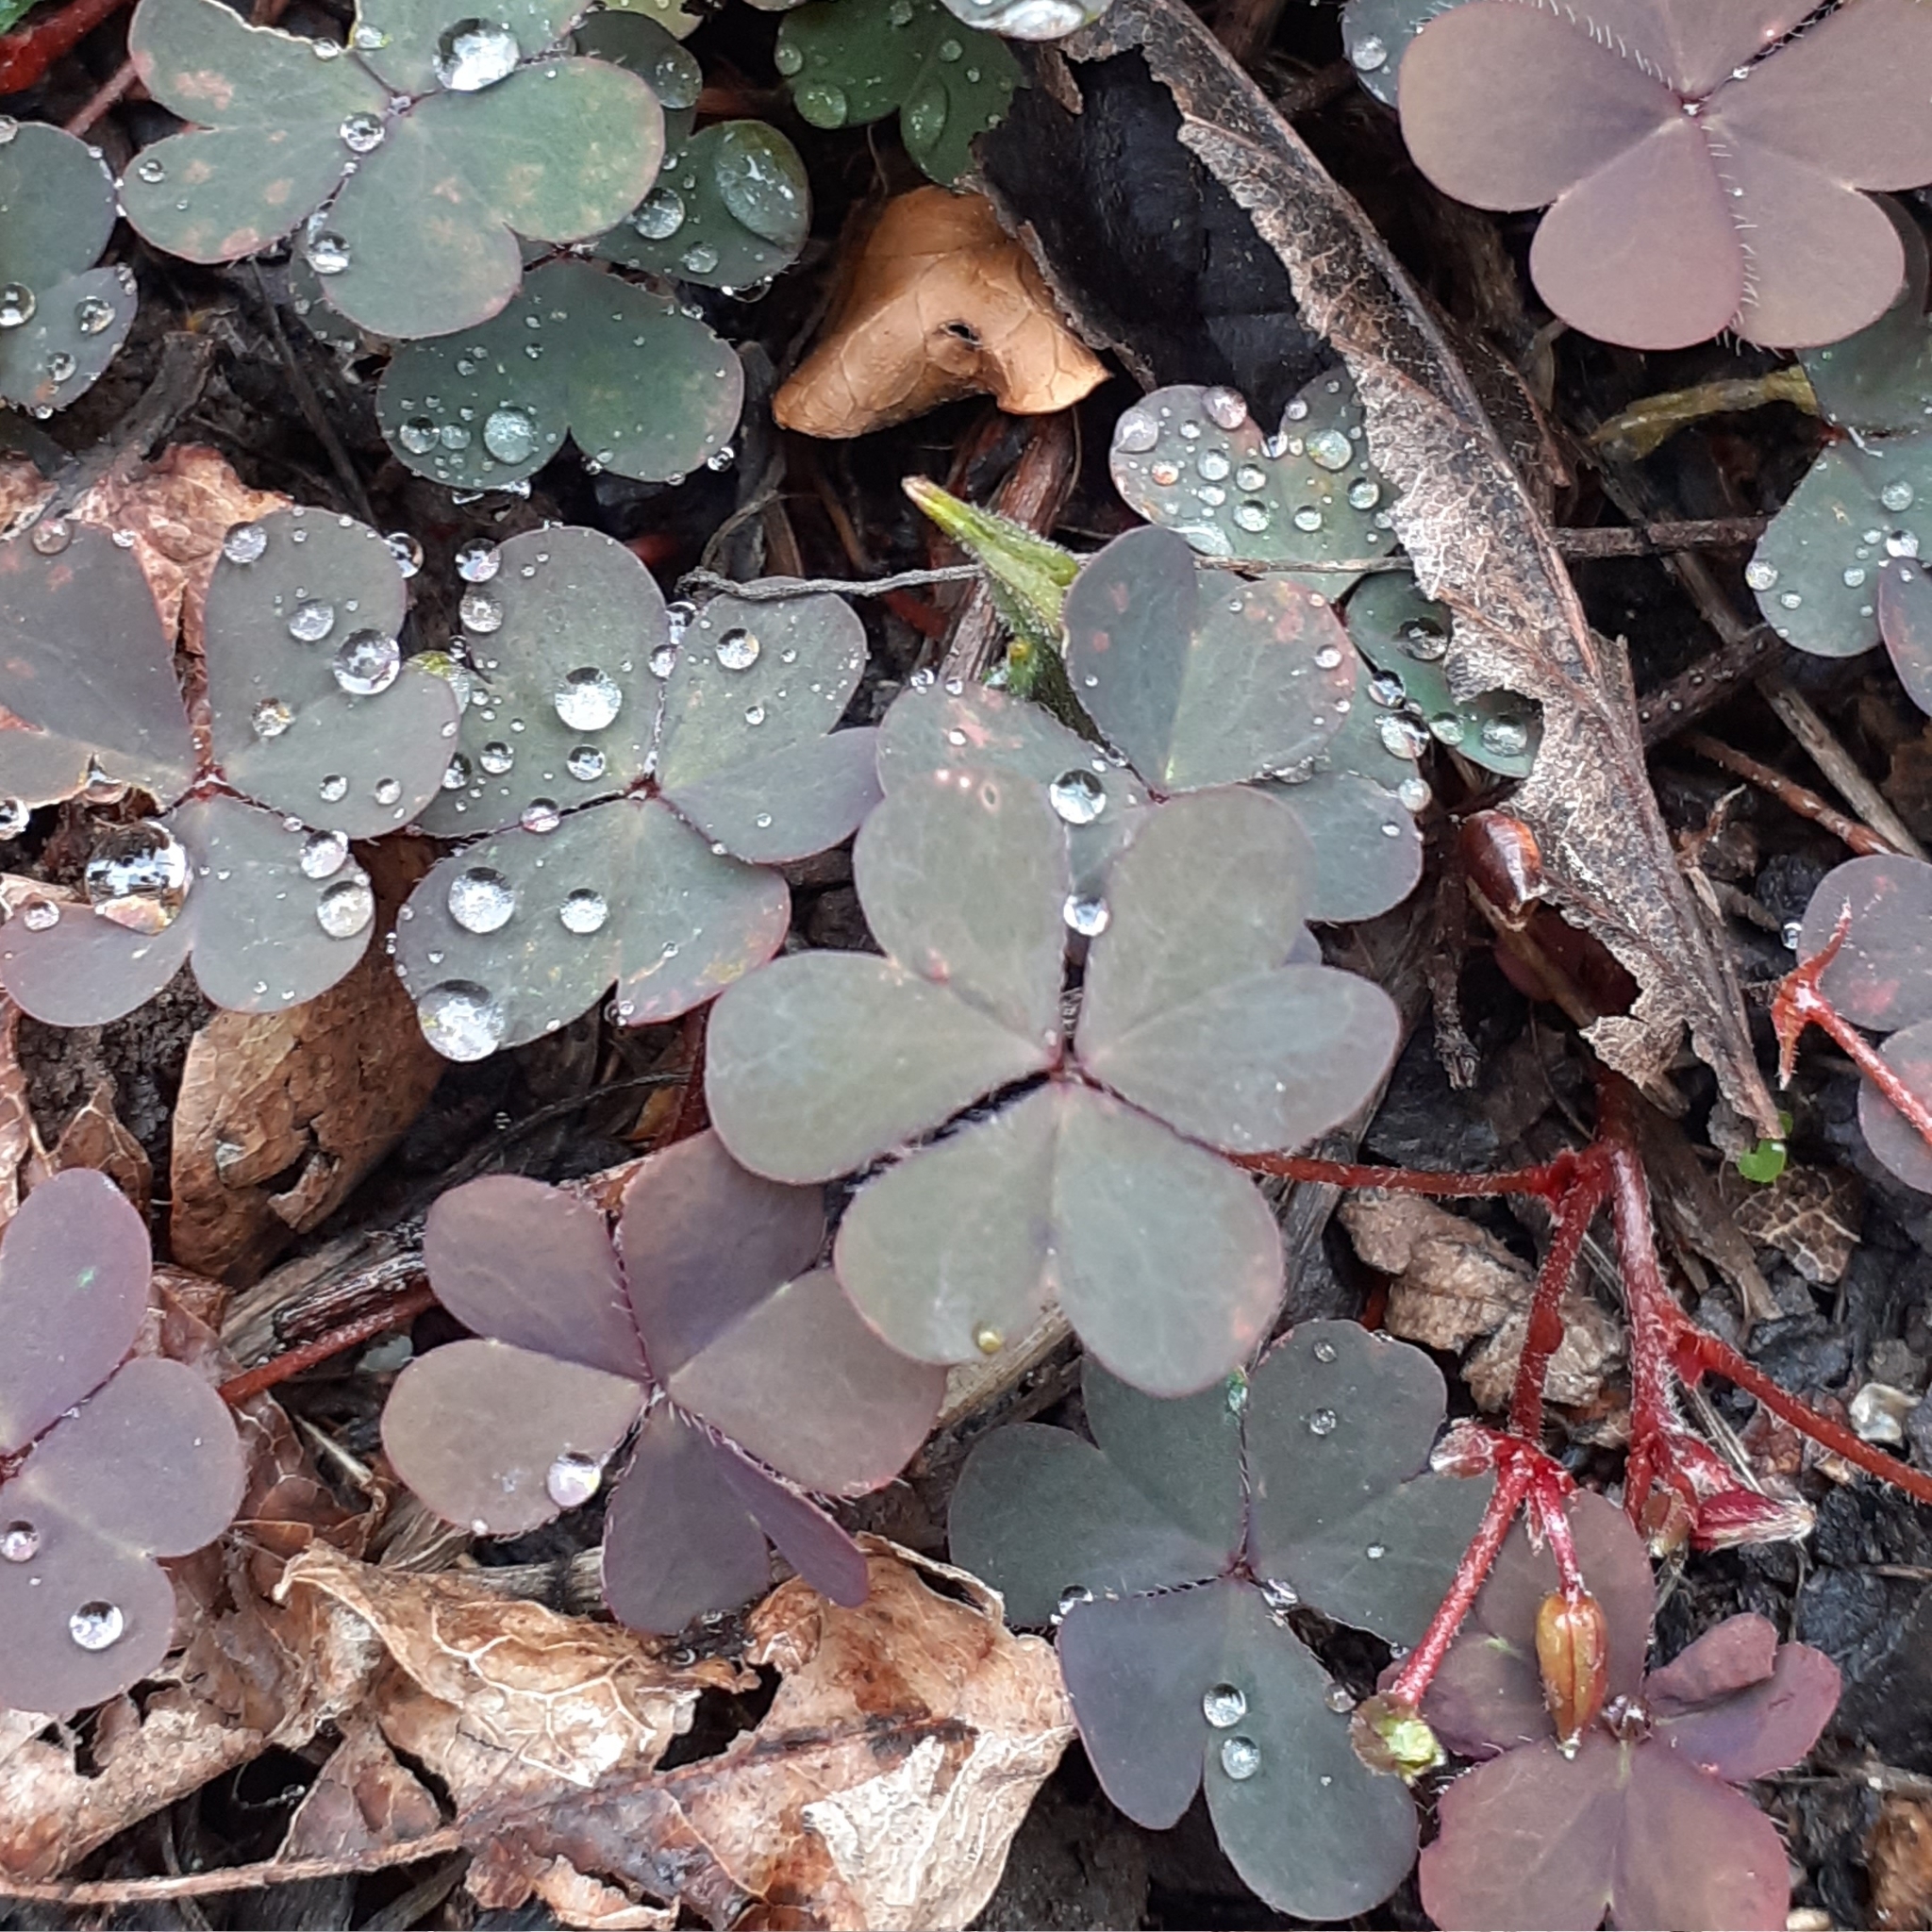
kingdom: Plantae
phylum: Tracheophyta
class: Magnoliopsida
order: Oxalidales
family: Oxalidaceae
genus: Oxalis
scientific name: Oxalis corniculata
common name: Procumbent yellow-sorrel
